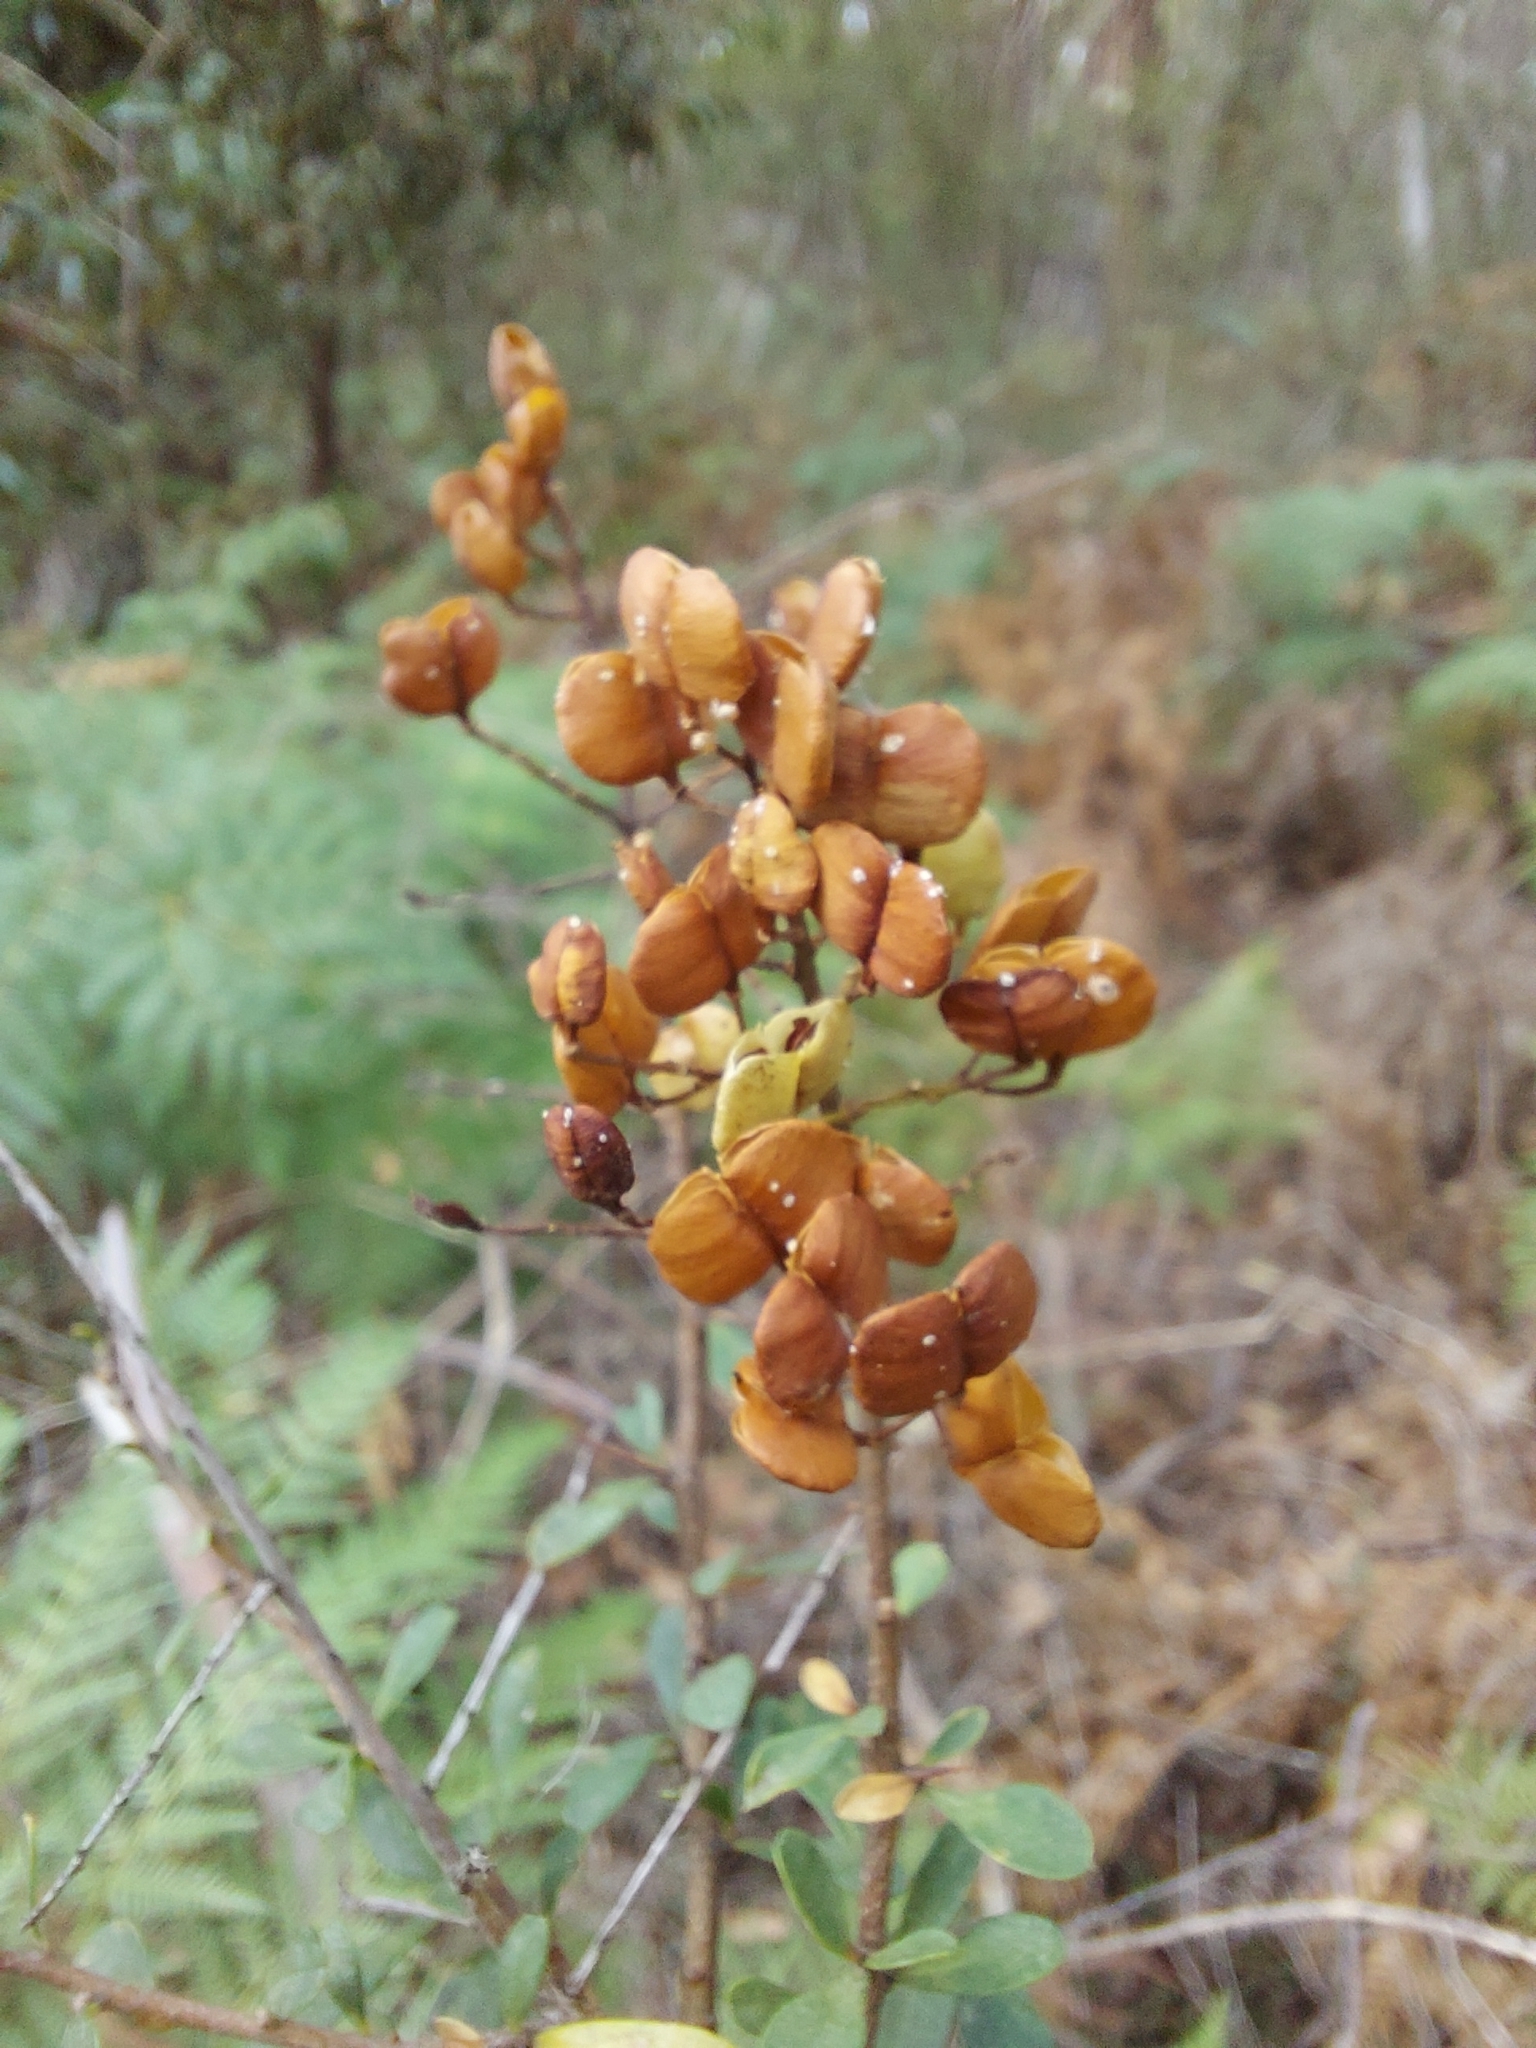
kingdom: Plantae
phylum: Tracheophyta
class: Magnoliopsida
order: Apiales
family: Pittosporaceae
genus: Bursaria
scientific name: Bursaria spinosa
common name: Australian blackthorn
